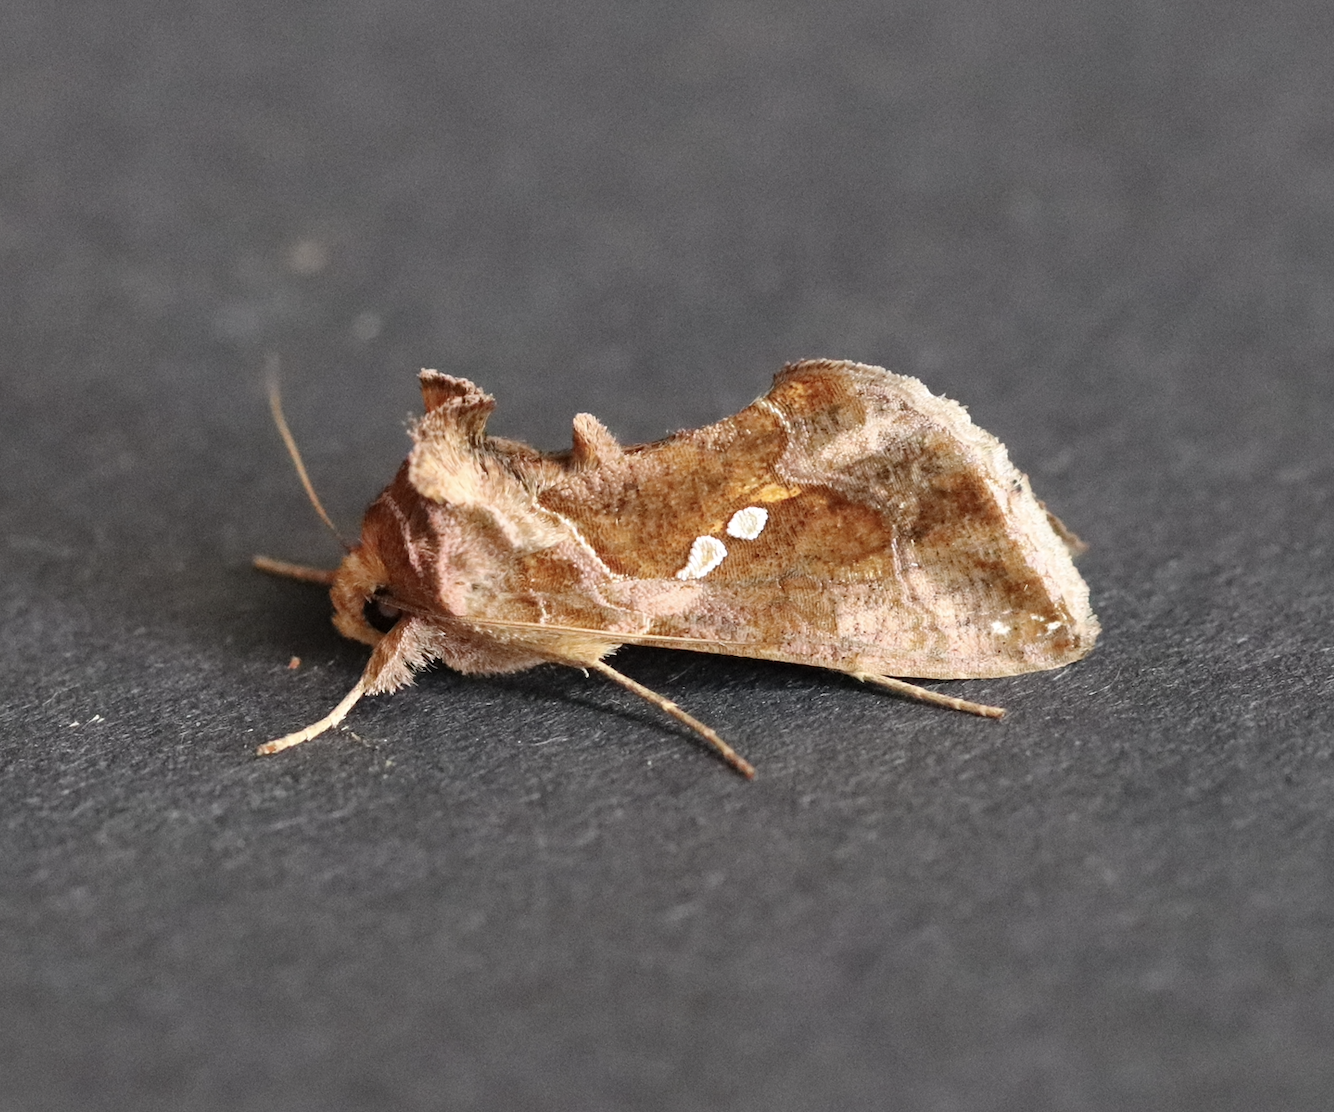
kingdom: Animalia
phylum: Arthropoda
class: Insecta
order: Lepidoptera
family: Noctuidae
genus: Chrysodeixis
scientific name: Chrysodeixis chalcites
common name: Golden twin-spot
